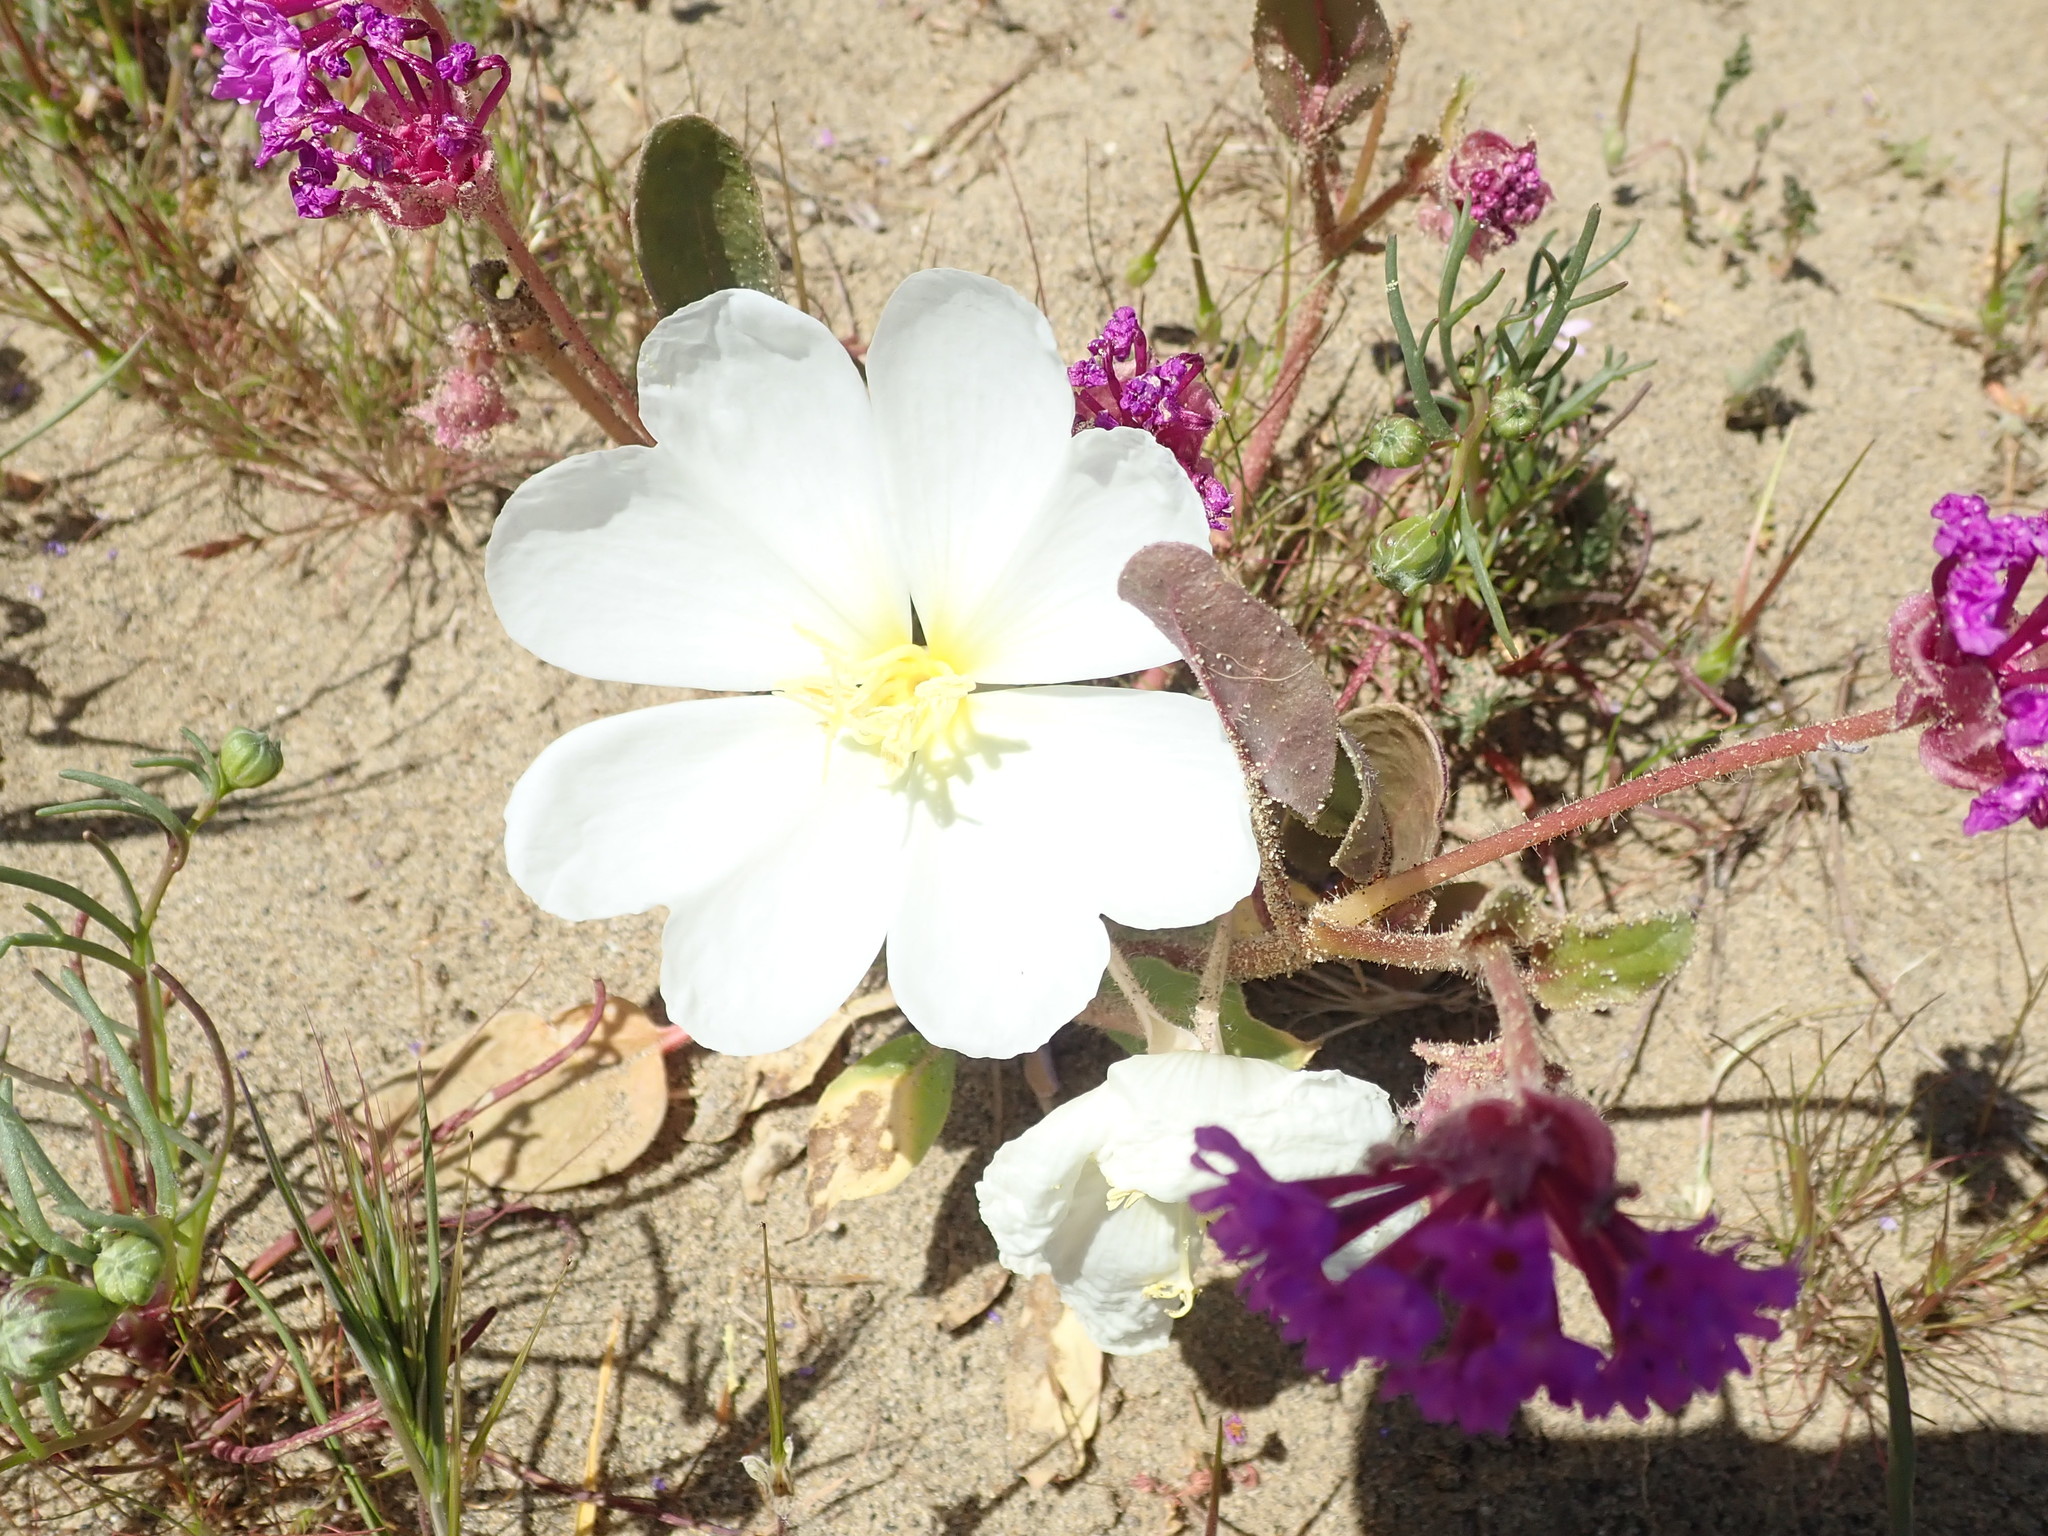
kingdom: Plantae
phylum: Tracheophyta
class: Magnoliopsida
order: Myrtales
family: Onagraceae
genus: Oenothera
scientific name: Oenothera deltoides
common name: Basket evening-primrose
